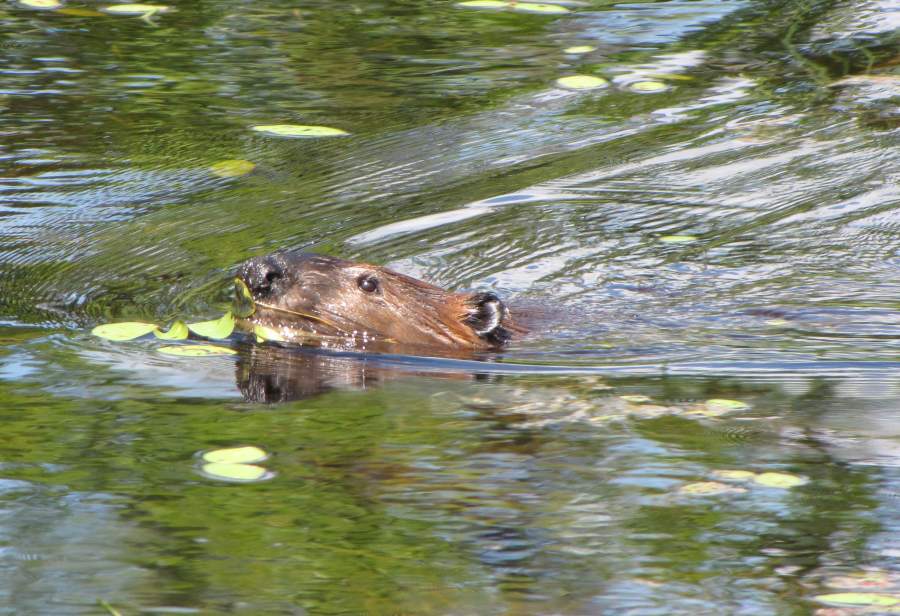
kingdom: Animalia
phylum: Chordata
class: Mammalia
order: Rodentia
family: Castoridae
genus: Castor
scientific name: Castor canadensis
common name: American beaver
